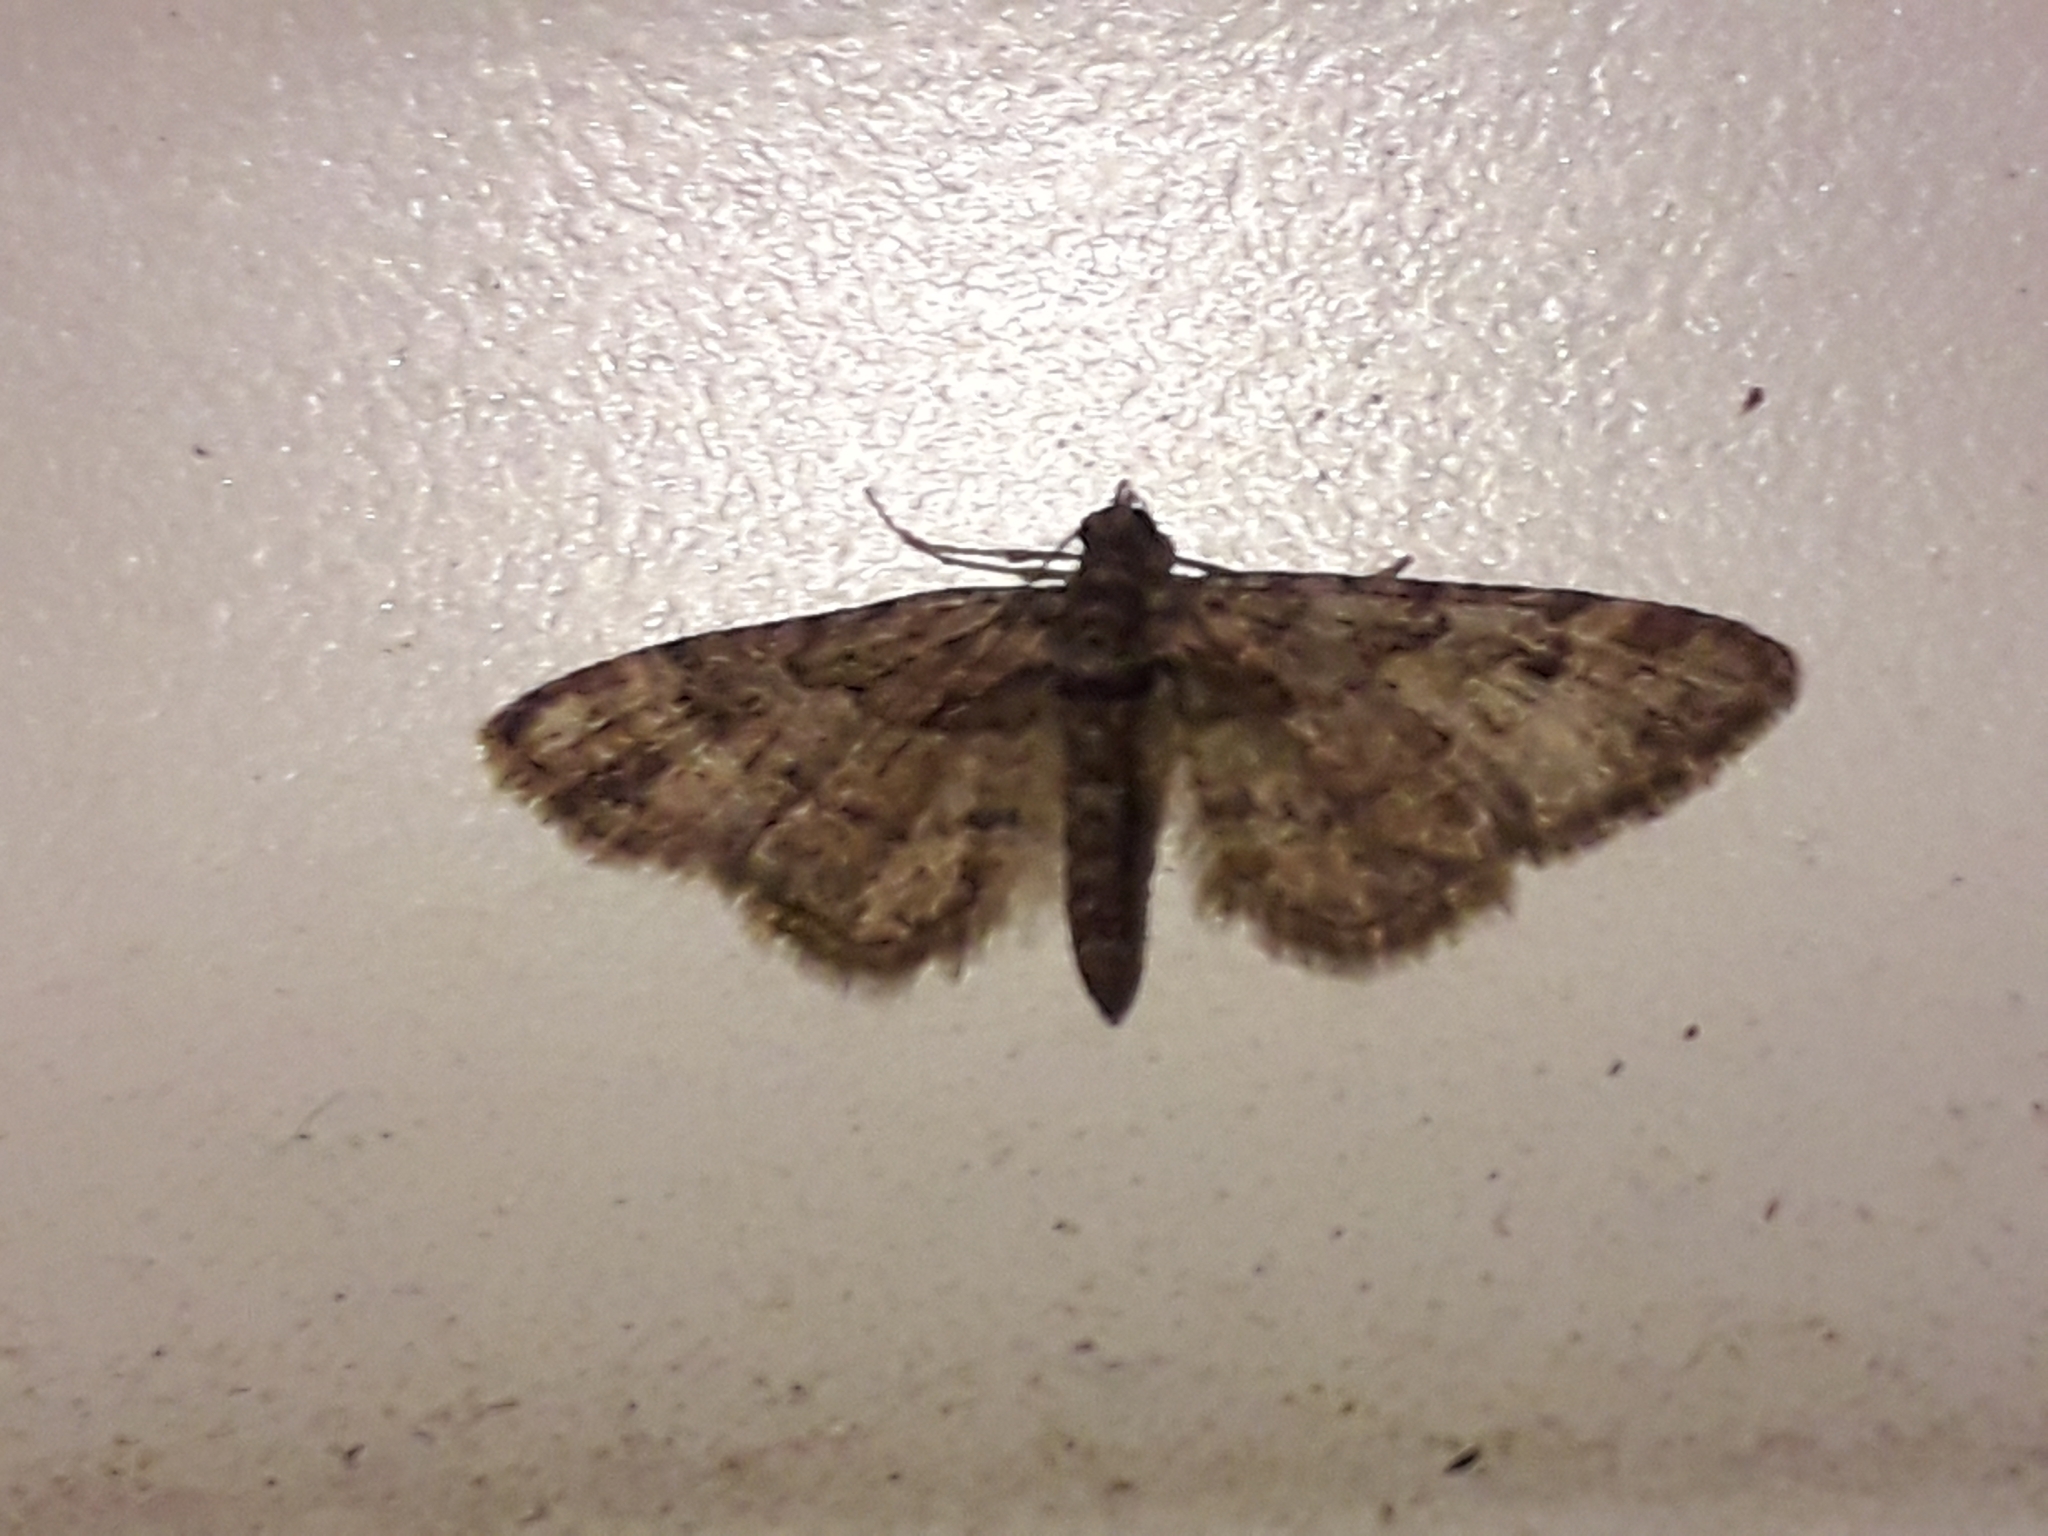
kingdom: Animalia
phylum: Arthropoda
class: Insecta
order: Lepidoptera
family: Geometridae
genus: Gymnoscelis
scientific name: Gymnoscelis rufifasciata
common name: Double-striped pug
